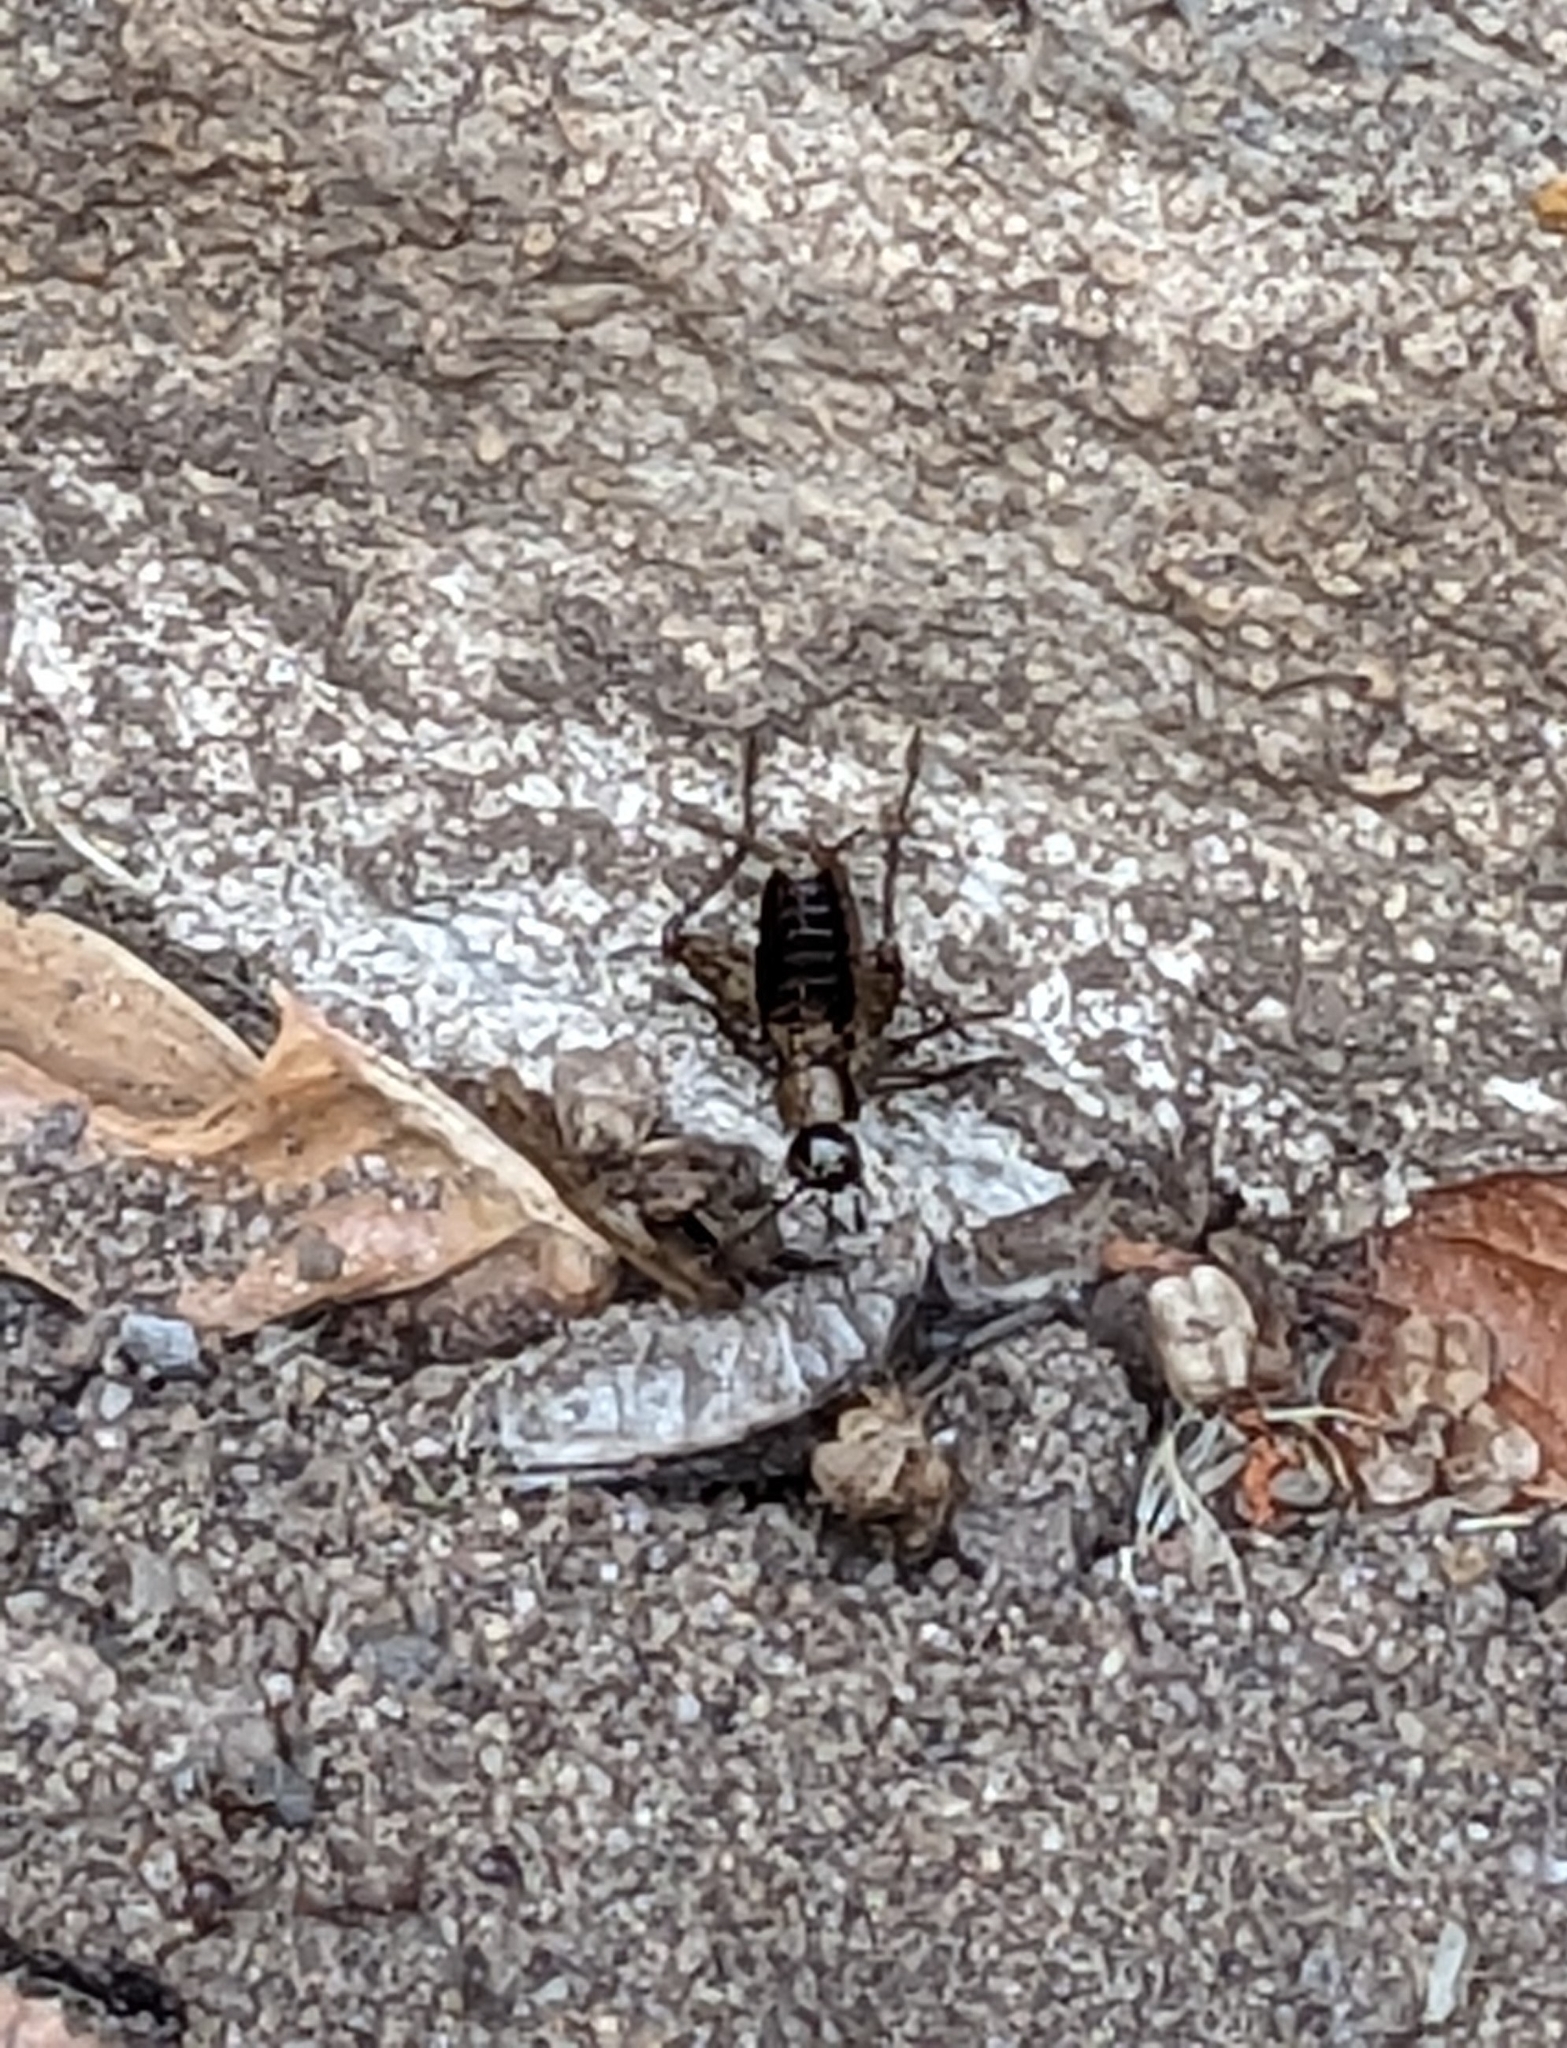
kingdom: Animalia
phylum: Arthropoda
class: Insecta
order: Orthoptera
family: Trigonidiidae
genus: Nemobius
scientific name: Nemobius sylvestris
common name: Wood-cricket
